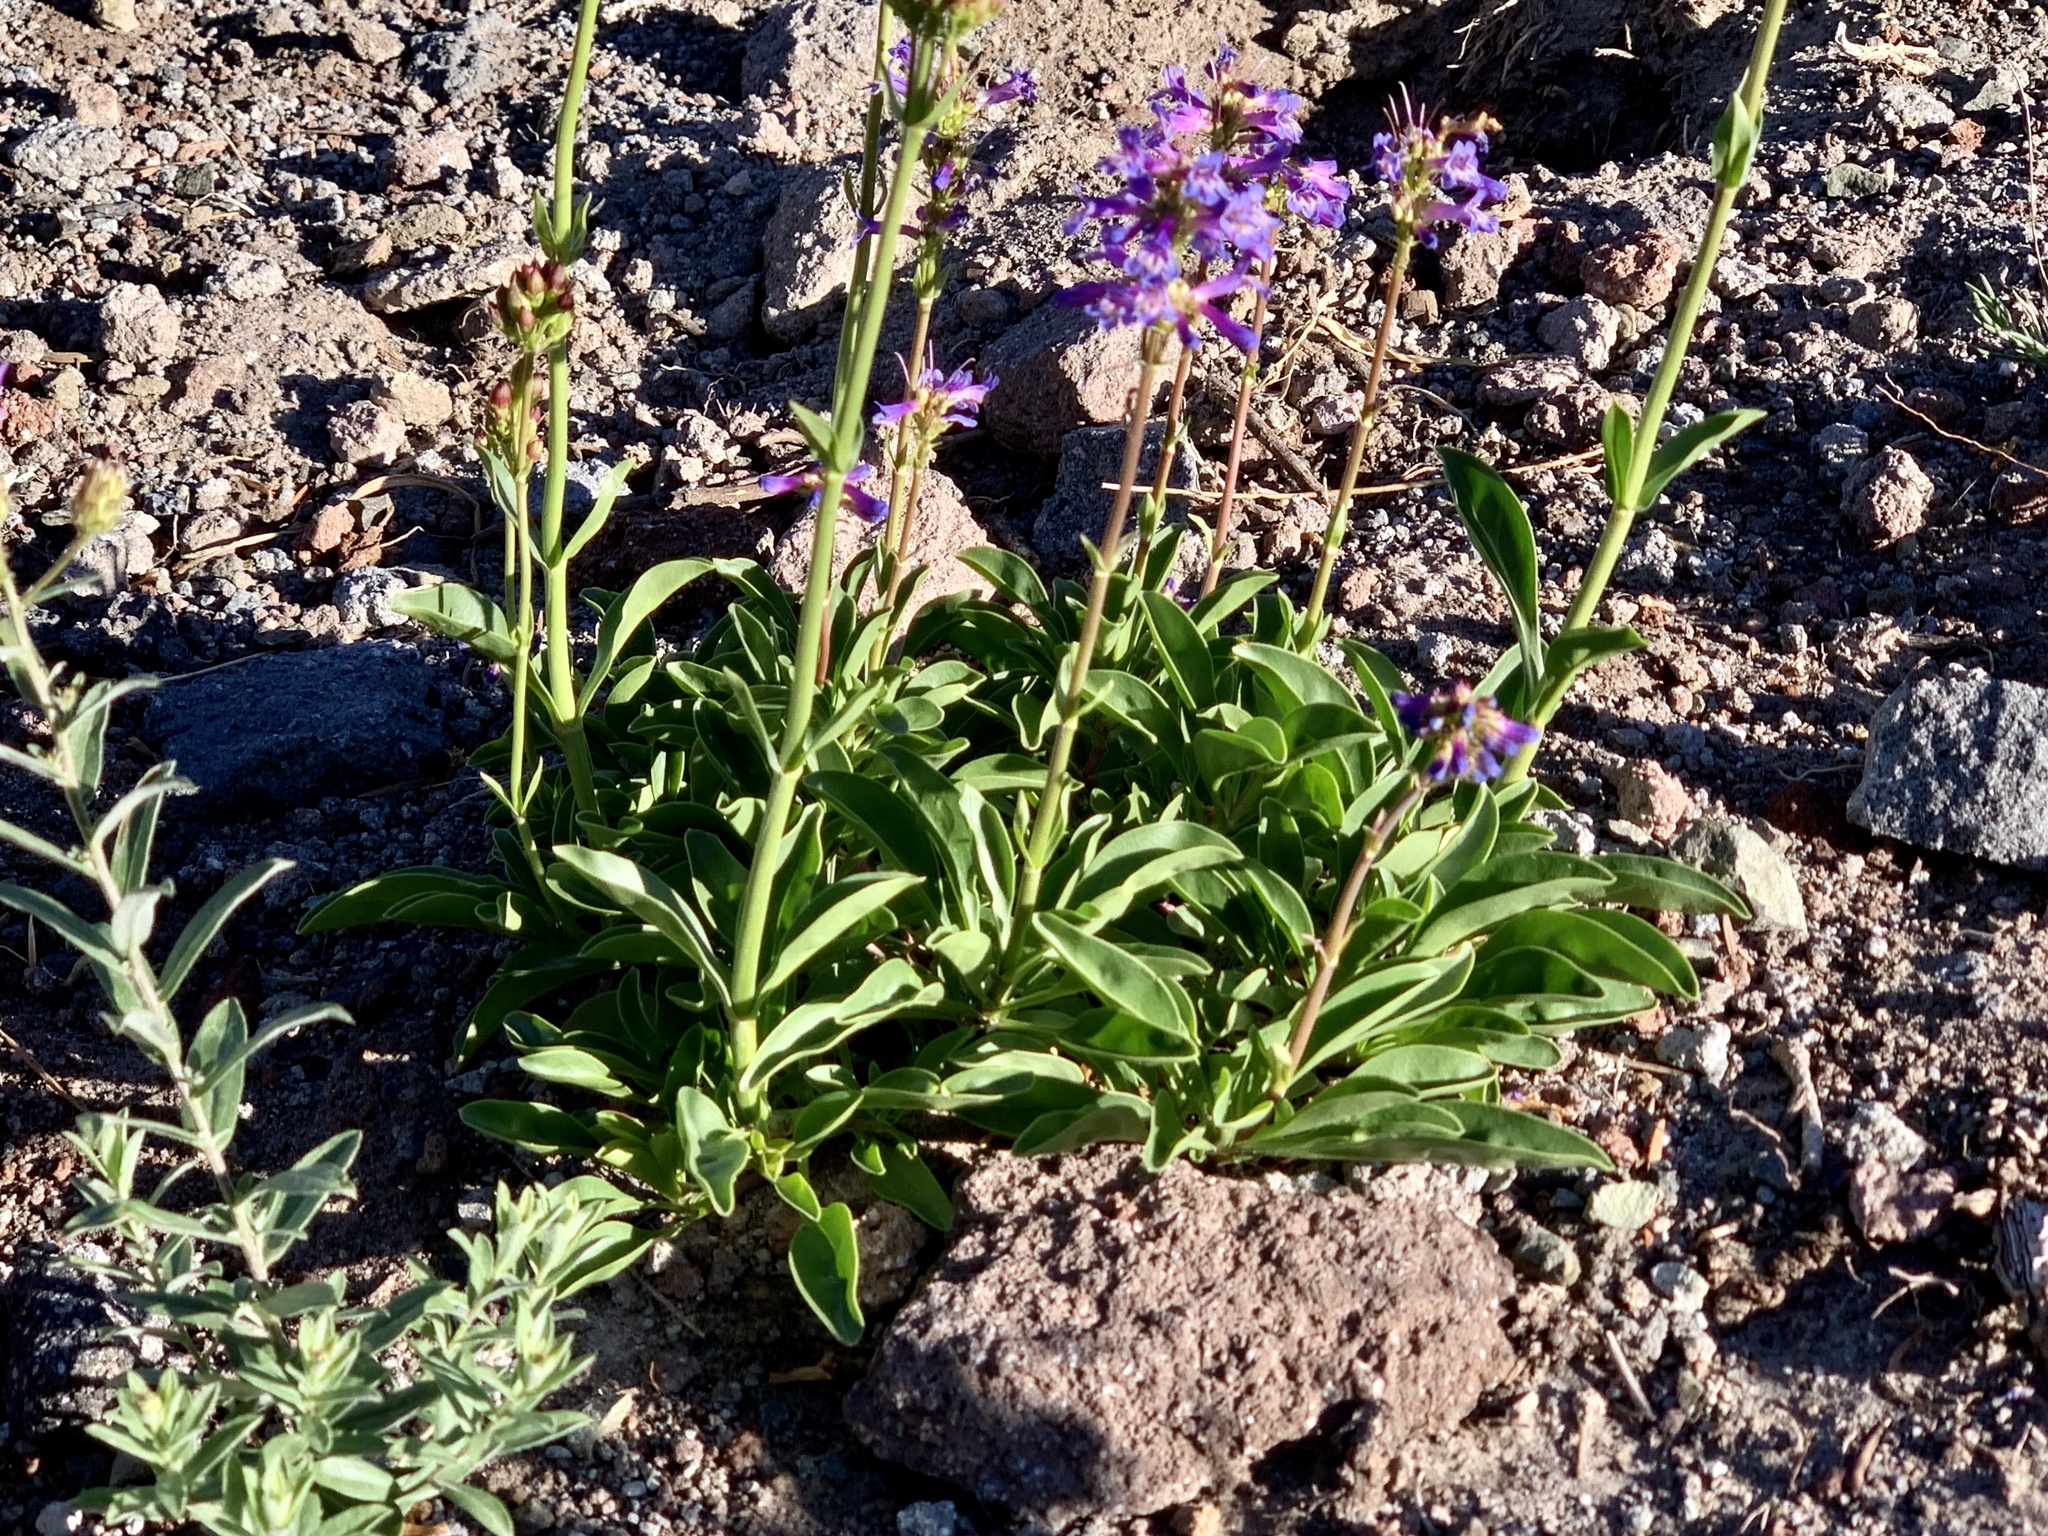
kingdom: Plantae
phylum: Tracheophyta
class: Magnoliopsida
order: Lamiales
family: Plantaginaceae
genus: Penstemon
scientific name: Penstemon procerus
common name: Small-flower penstemon
